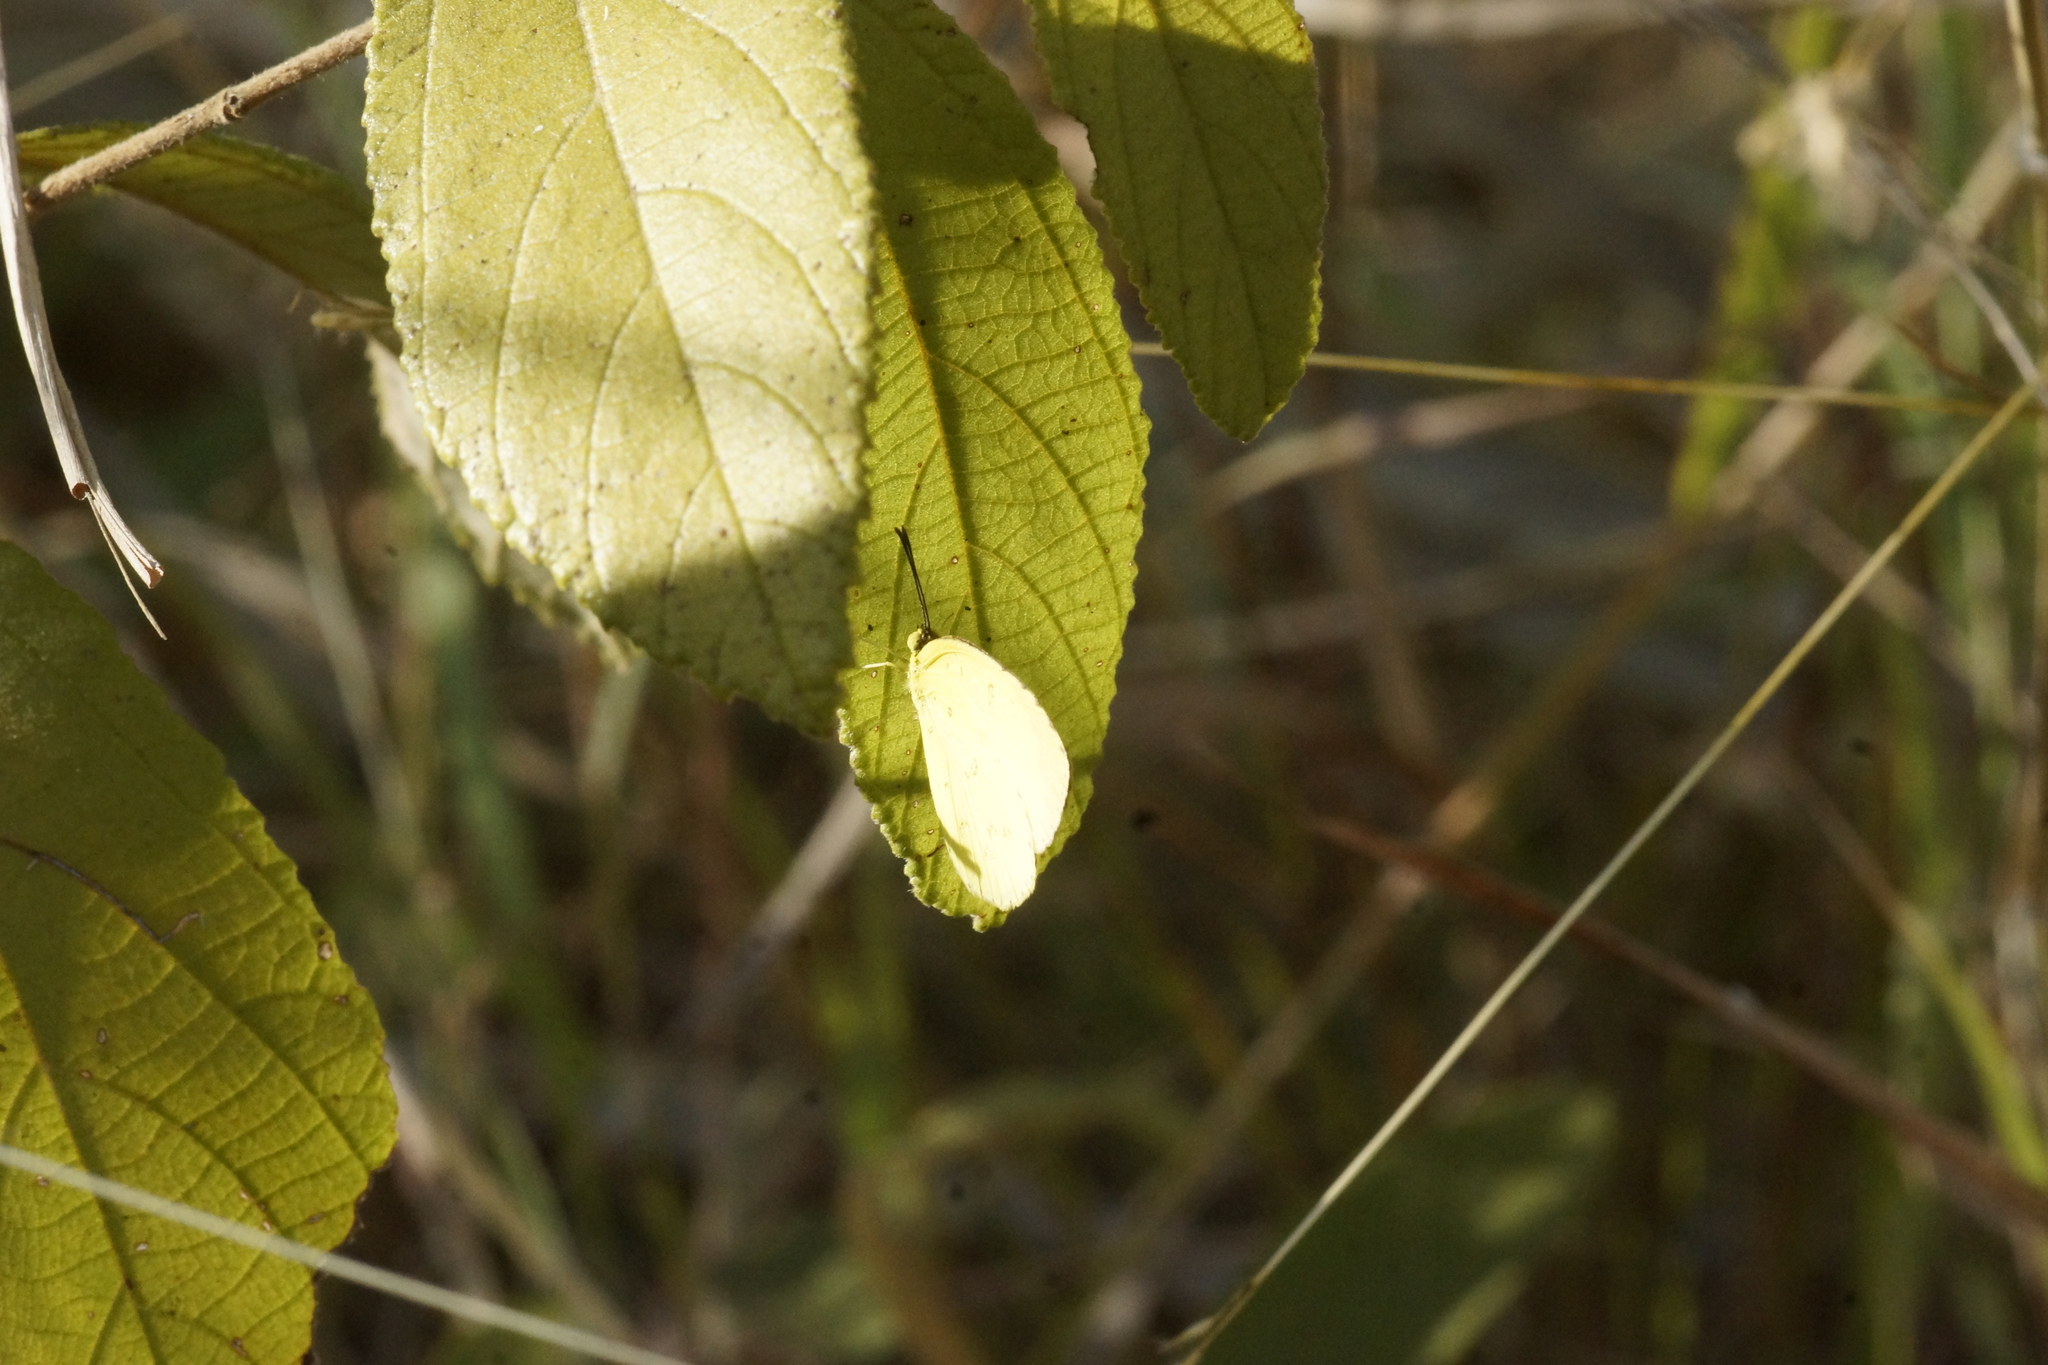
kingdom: Animalia
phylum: Arthropoda
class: Insecta
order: Lepidoptera
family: Pieridae
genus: Eurema
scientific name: Eurema hecabe
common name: Pale grass yellow
